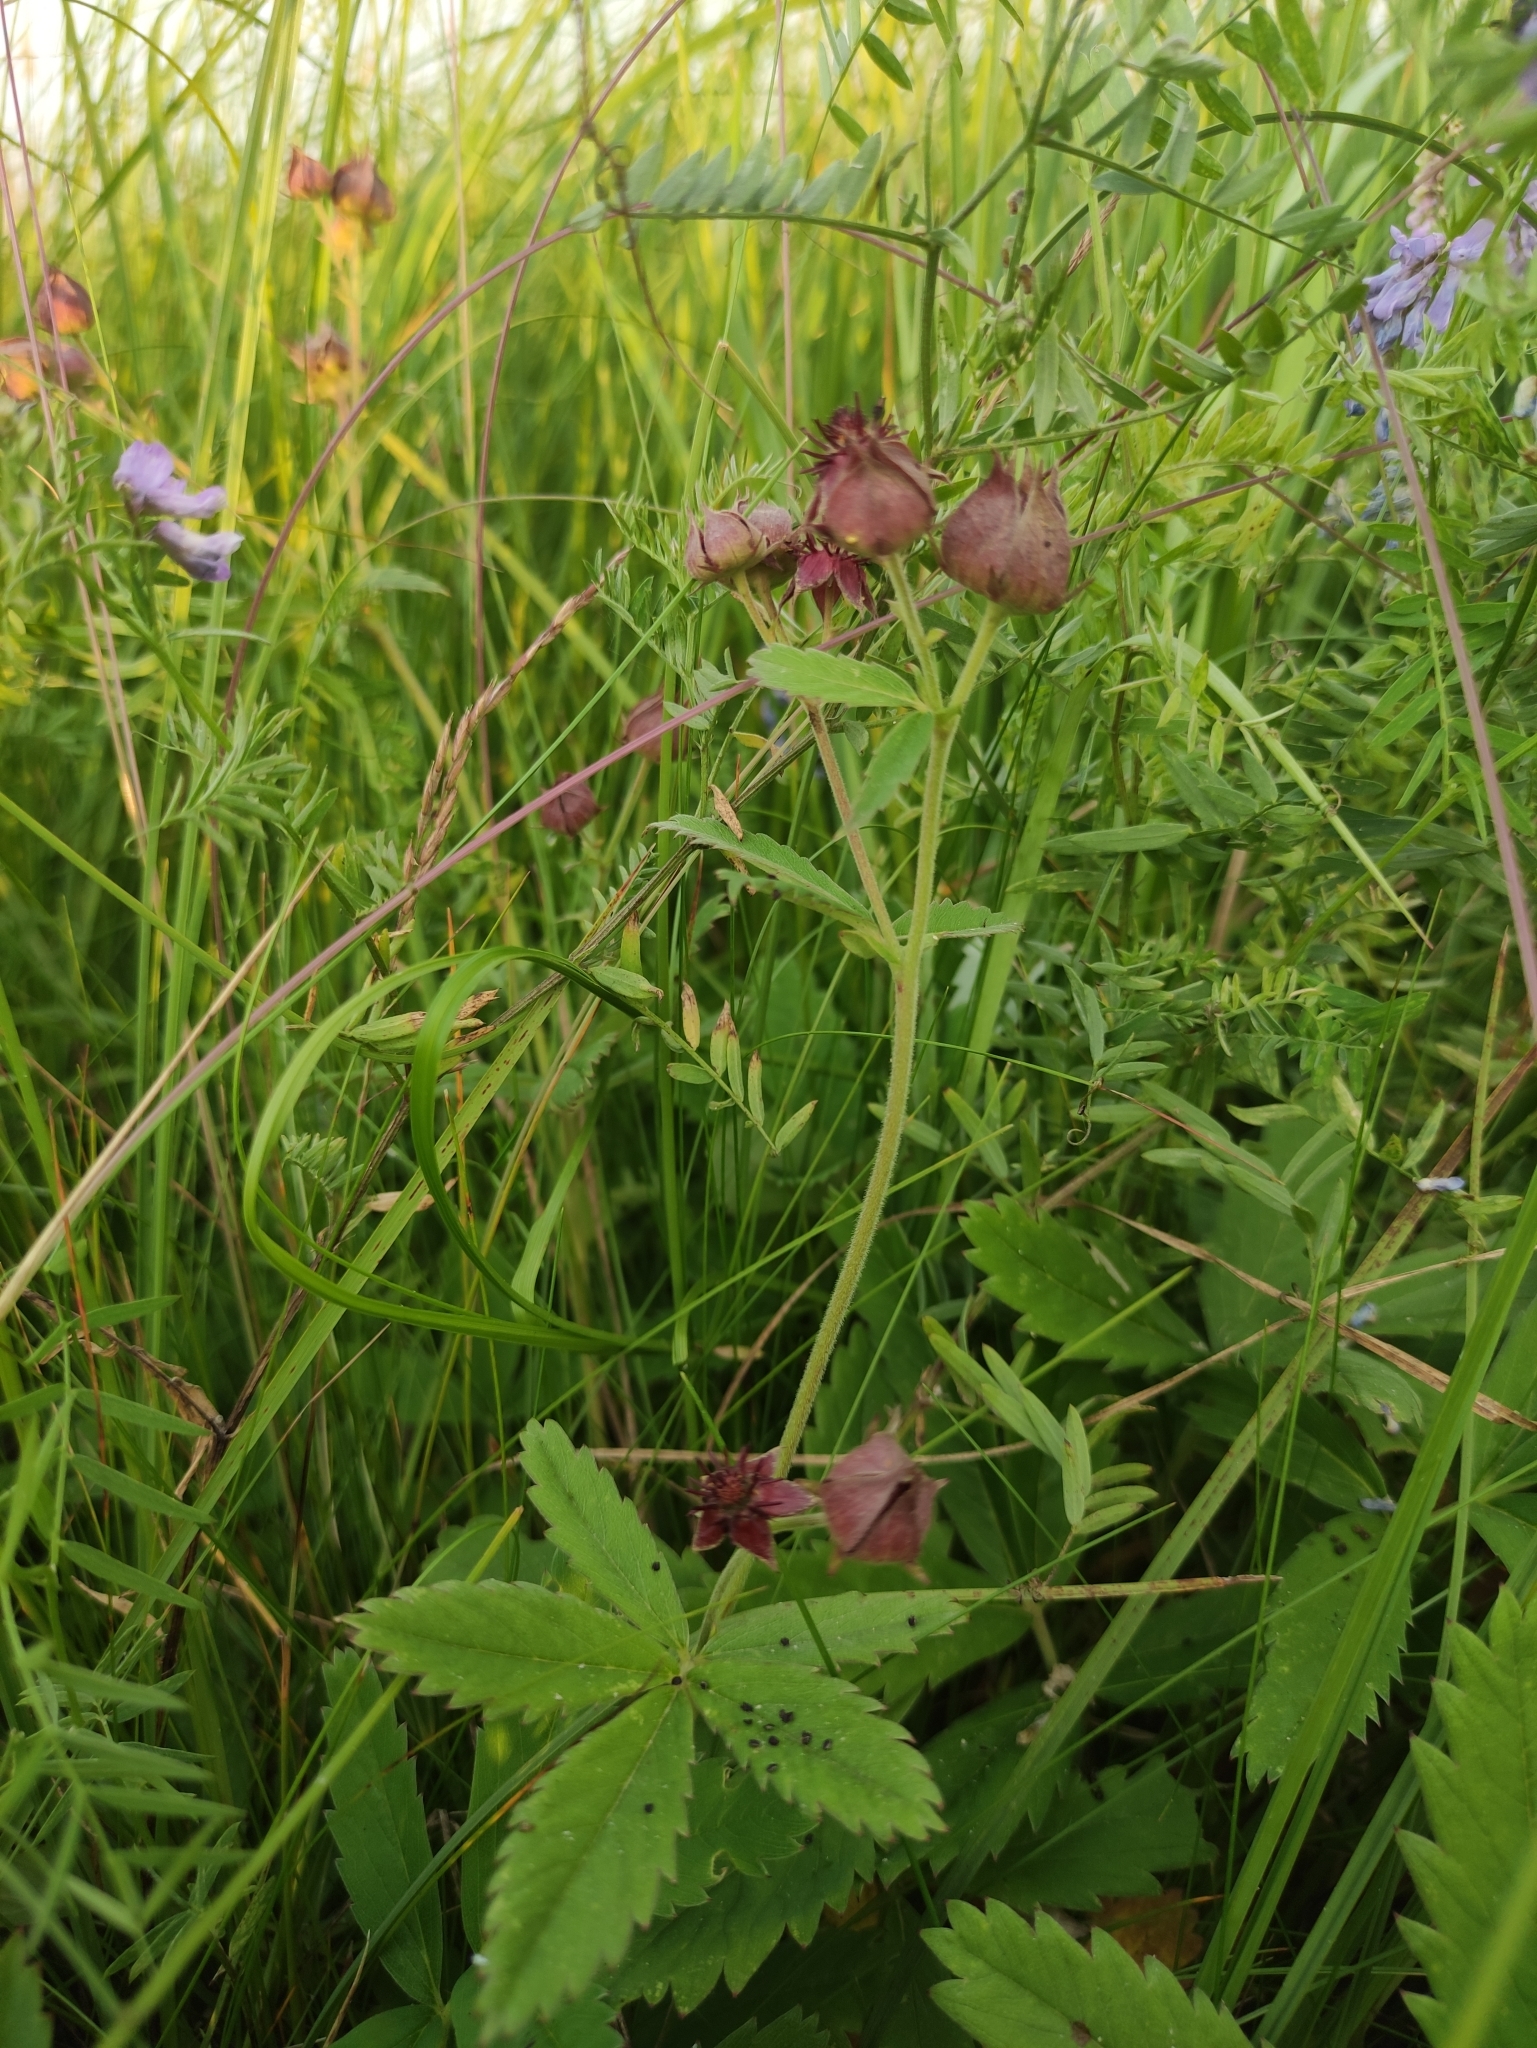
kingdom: Plantae
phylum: Tracheophyta
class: Magnoliopsida
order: Rosales
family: Rosaceae
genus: Comarum
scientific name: Comarum palustre
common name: Marsh cinquefoil
